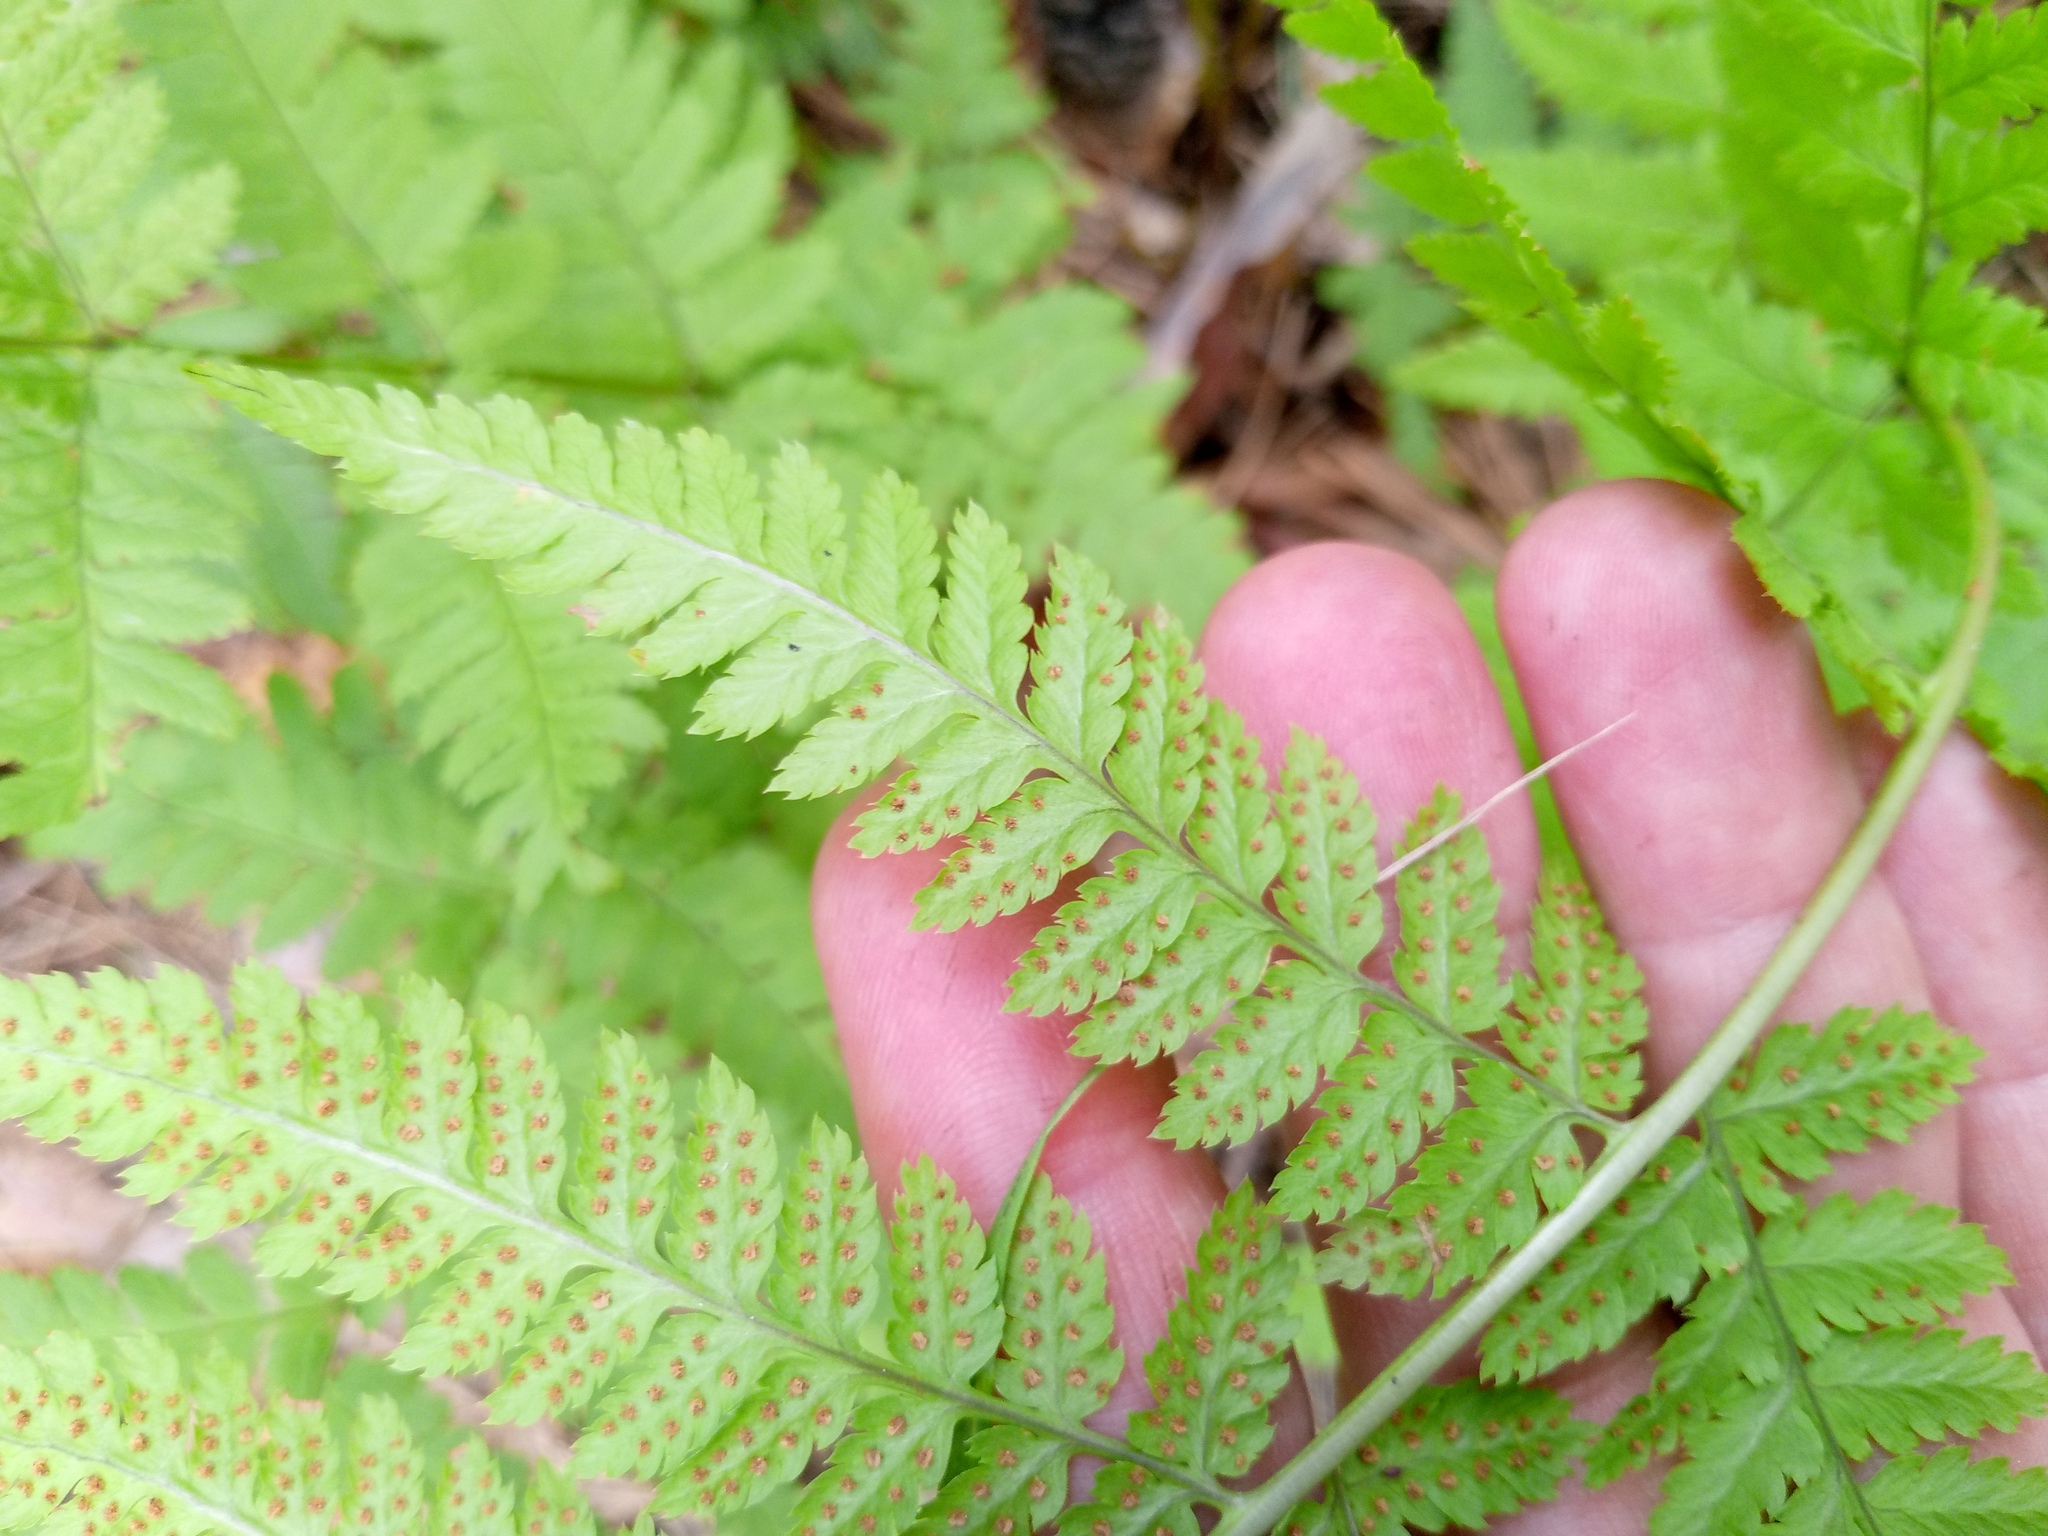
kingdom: Plantae
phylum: Tracheophyta
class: Polypodiopsida
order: Polypodiales
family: Dryopteridaceae
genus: Dryopteris
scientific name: Dryopteris carthusiana
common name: Narrow buckler-fern
